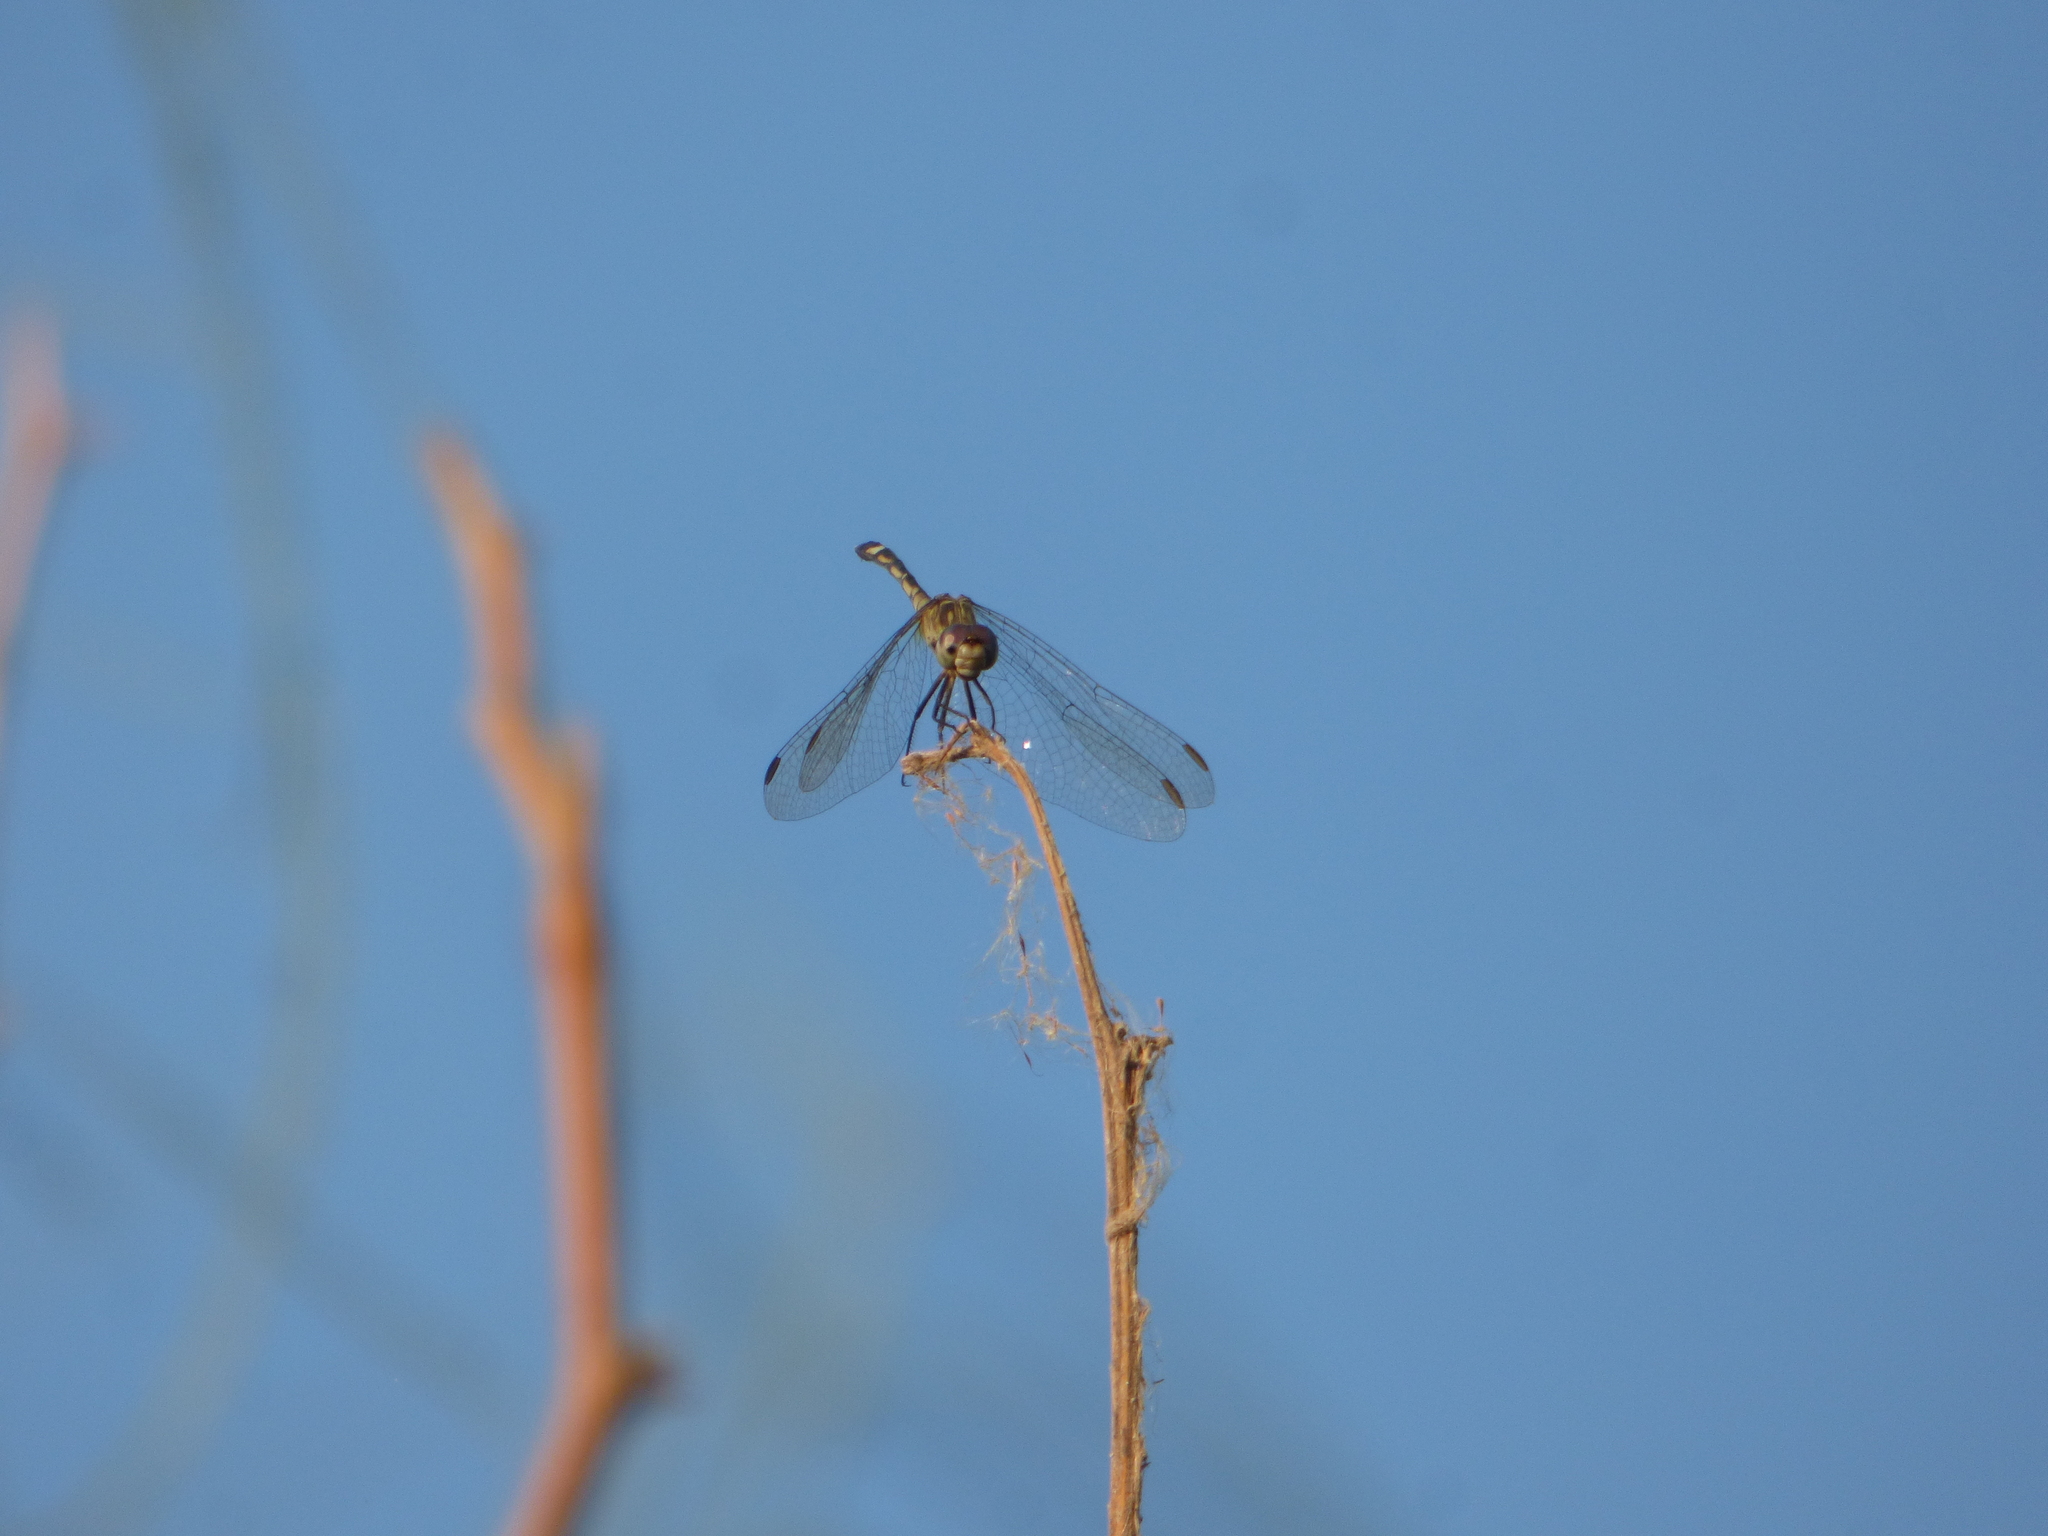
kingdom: Animalia
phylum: Arthropoda
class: Insecta
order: Odonata
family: Libellulidae
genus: Micrathyria
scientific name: Micrathyria longifasciata
